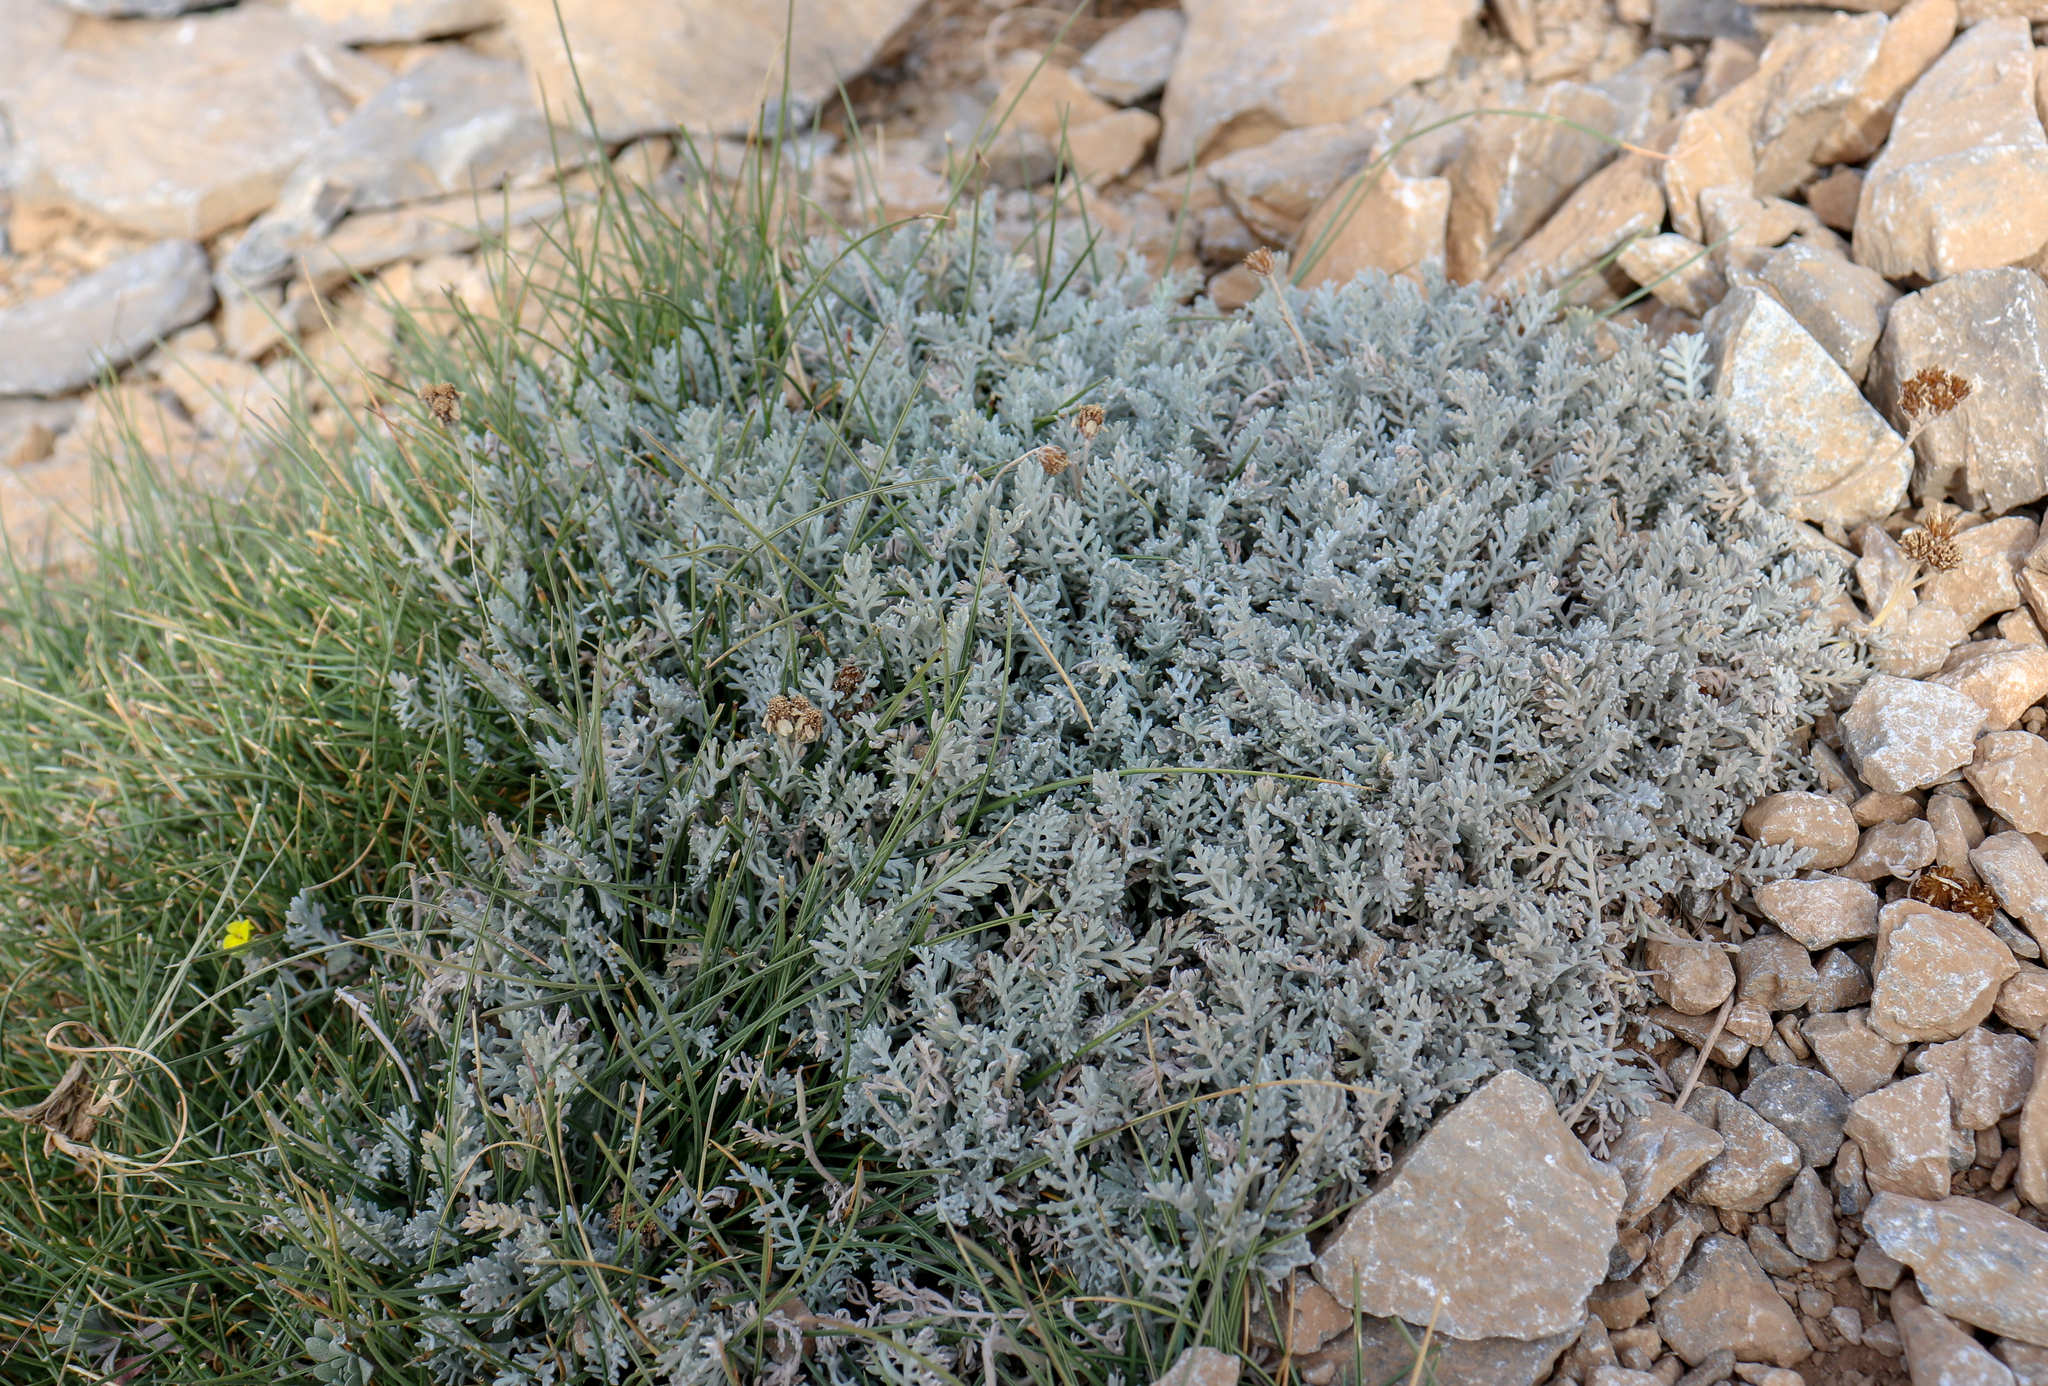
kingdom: Plantae
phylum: Tracheophyta
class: Magnoliopsida
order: Asterales
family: Asteraceae
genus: Achillea
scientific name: Achillea ambrosiaca
